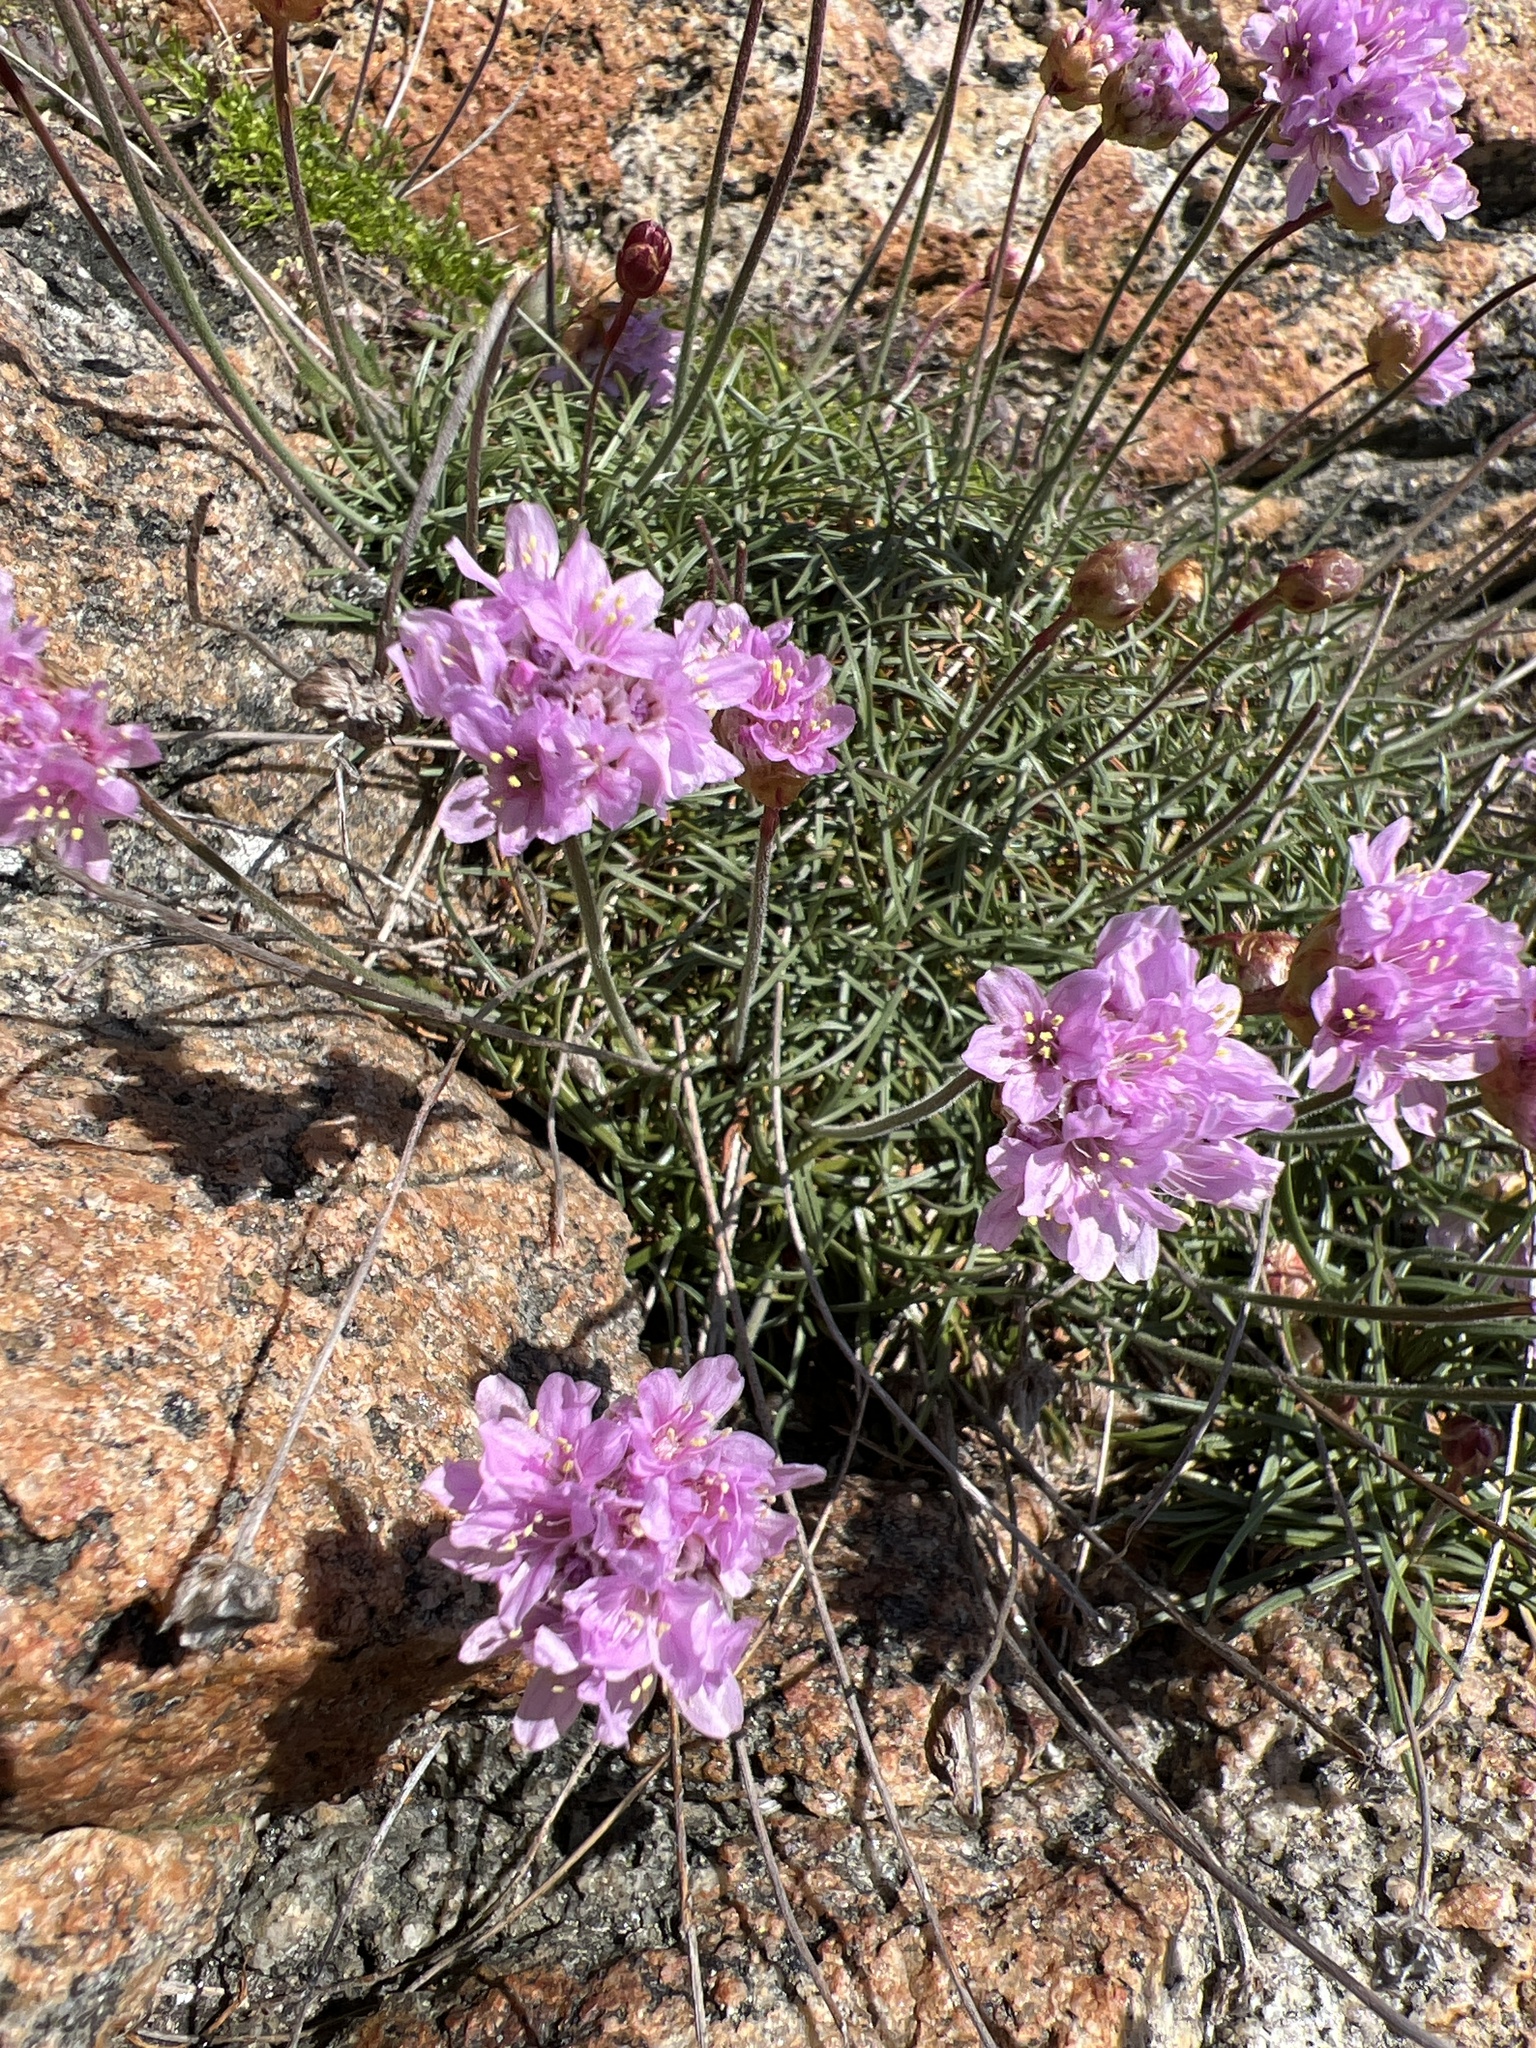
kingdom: Plantae
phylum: Tracheophyta
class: Magnoliopsida
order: Caryophyllales
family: Plumbaginaceae
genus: Armeria
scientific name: Armeria maritima
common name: Thrift
